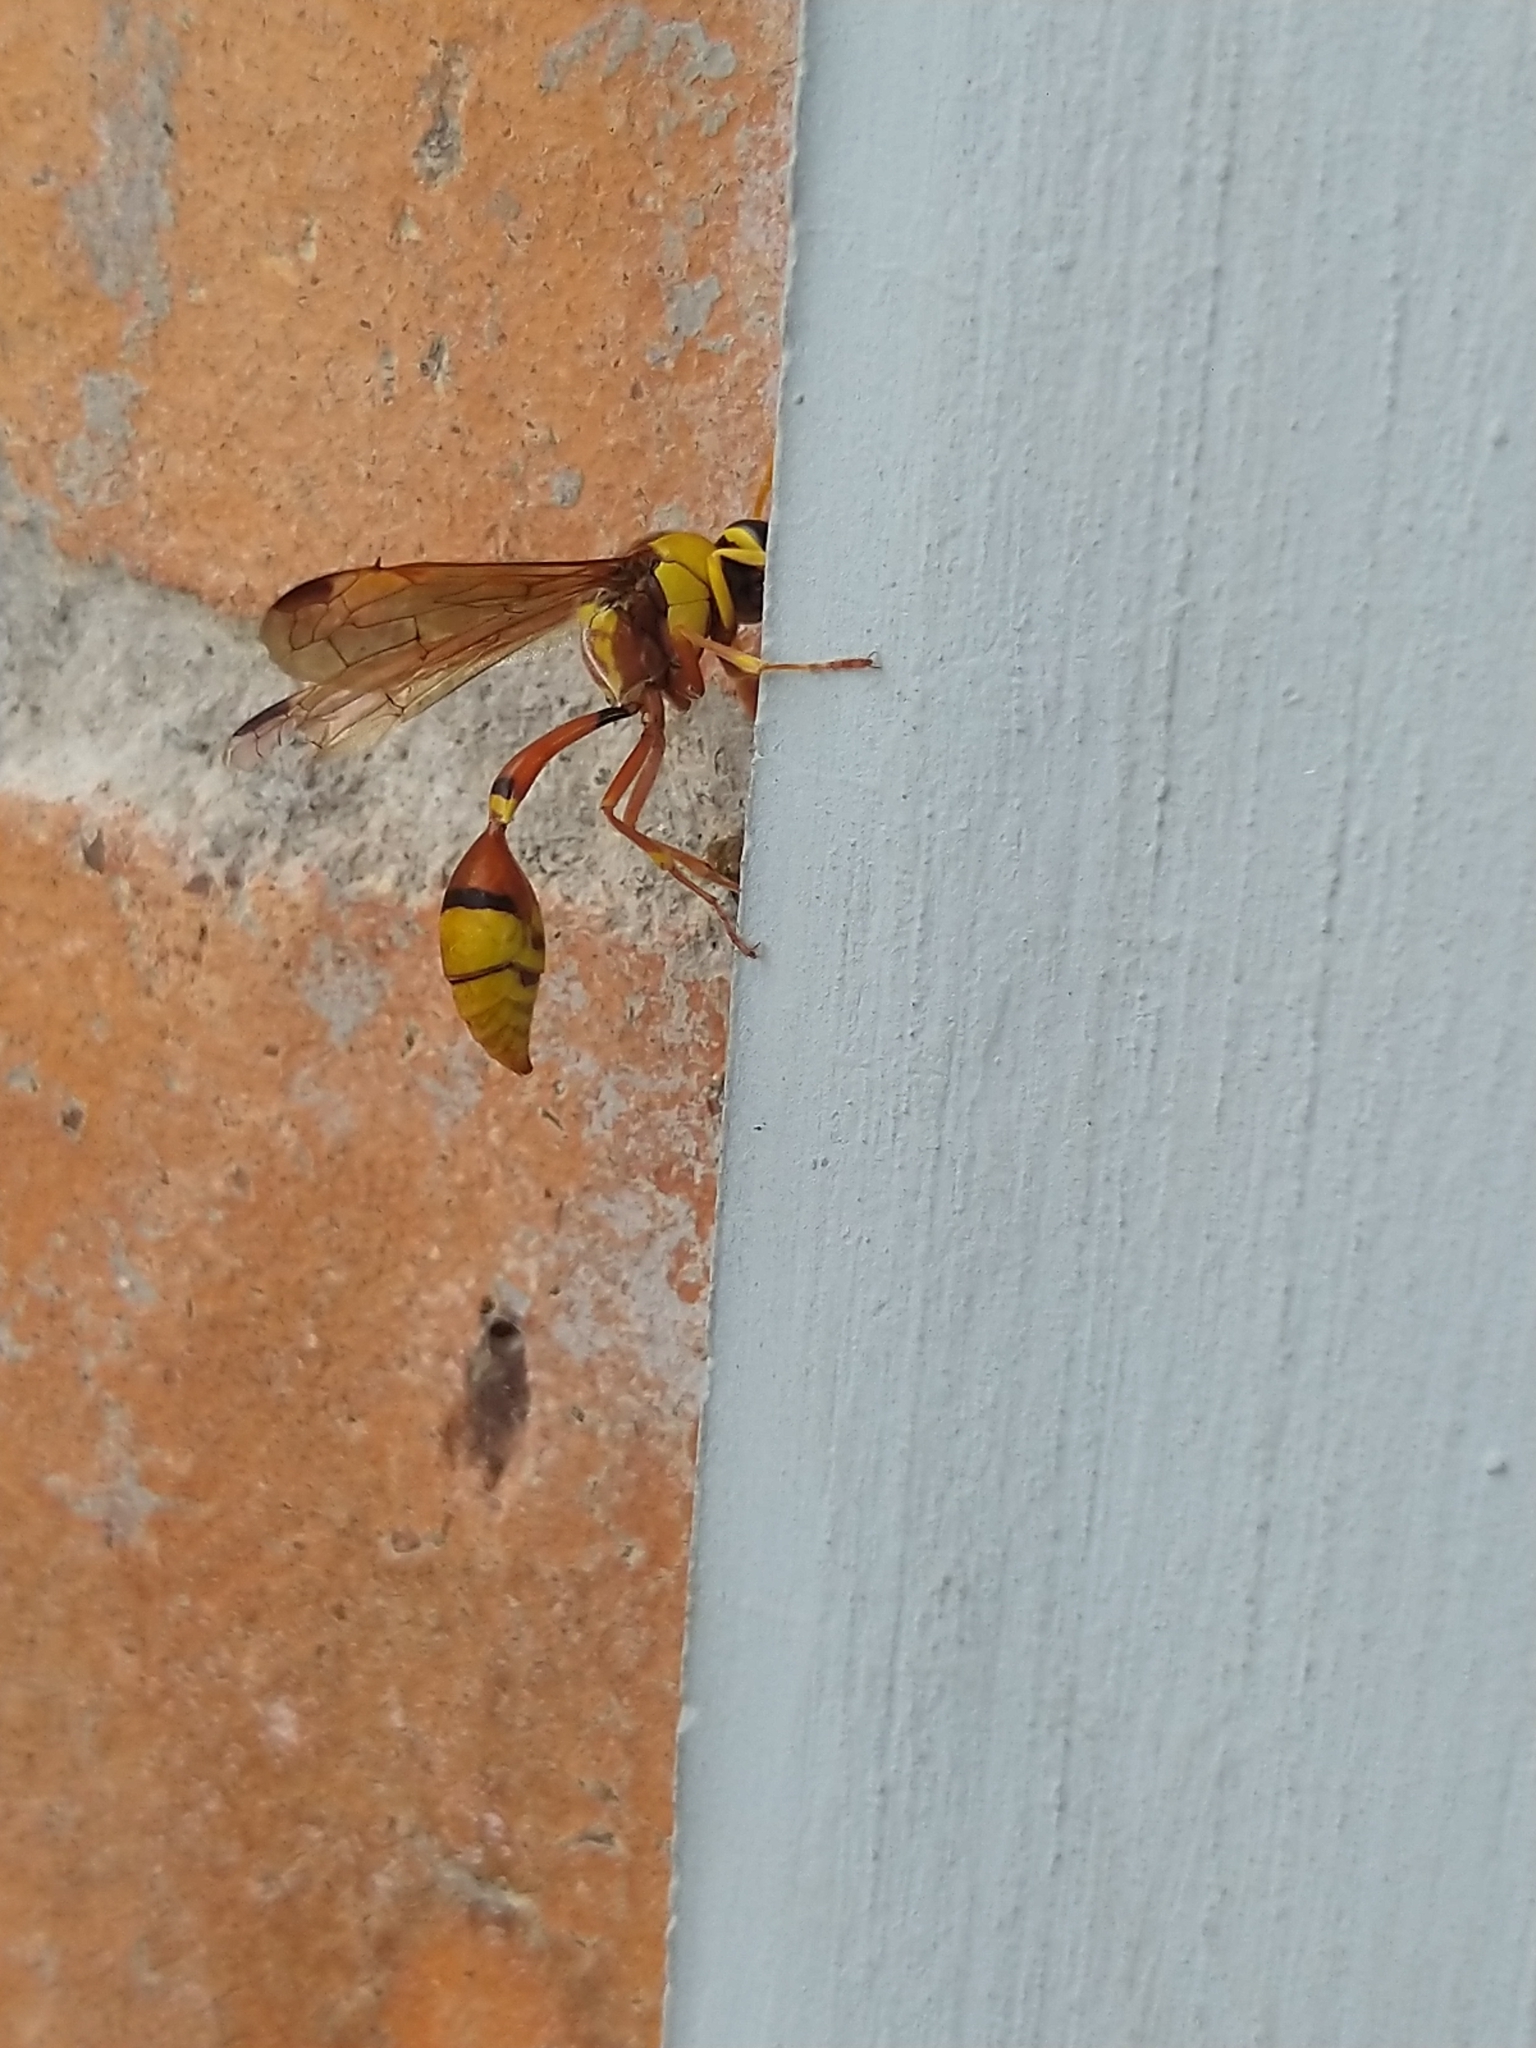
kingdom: Animalia
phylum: Arthropoda
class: Insecta
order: Hymenoptera
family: Eumenidae
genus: Delta
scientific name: Delta esuriens
